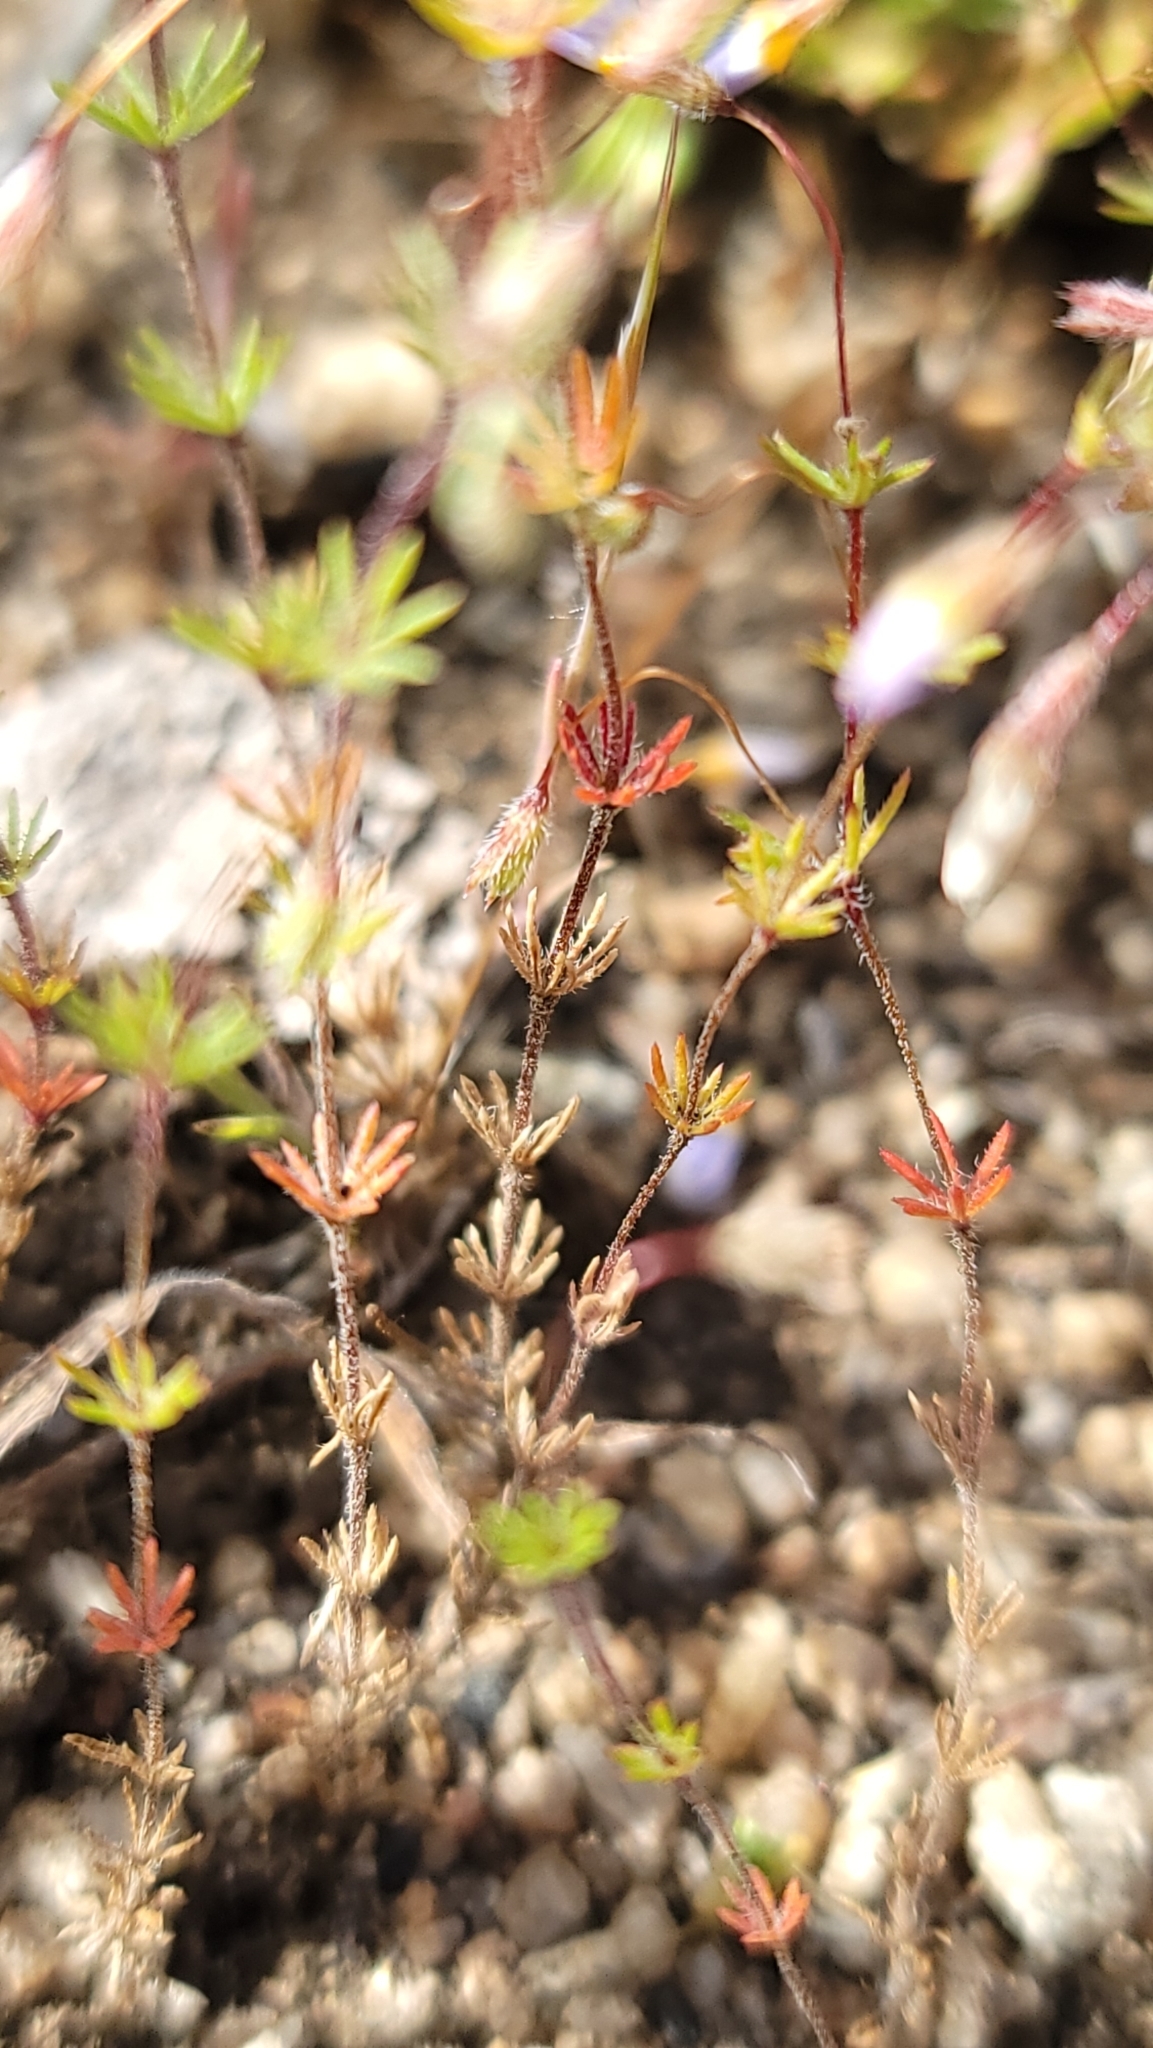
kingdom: Plantae
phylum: Tracheophyta
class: Magnoliopsida
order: Ericales
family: Polemoniaceae
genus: Leptosiphon
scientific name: Leptosiphon filipes
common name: Thread linanthus
